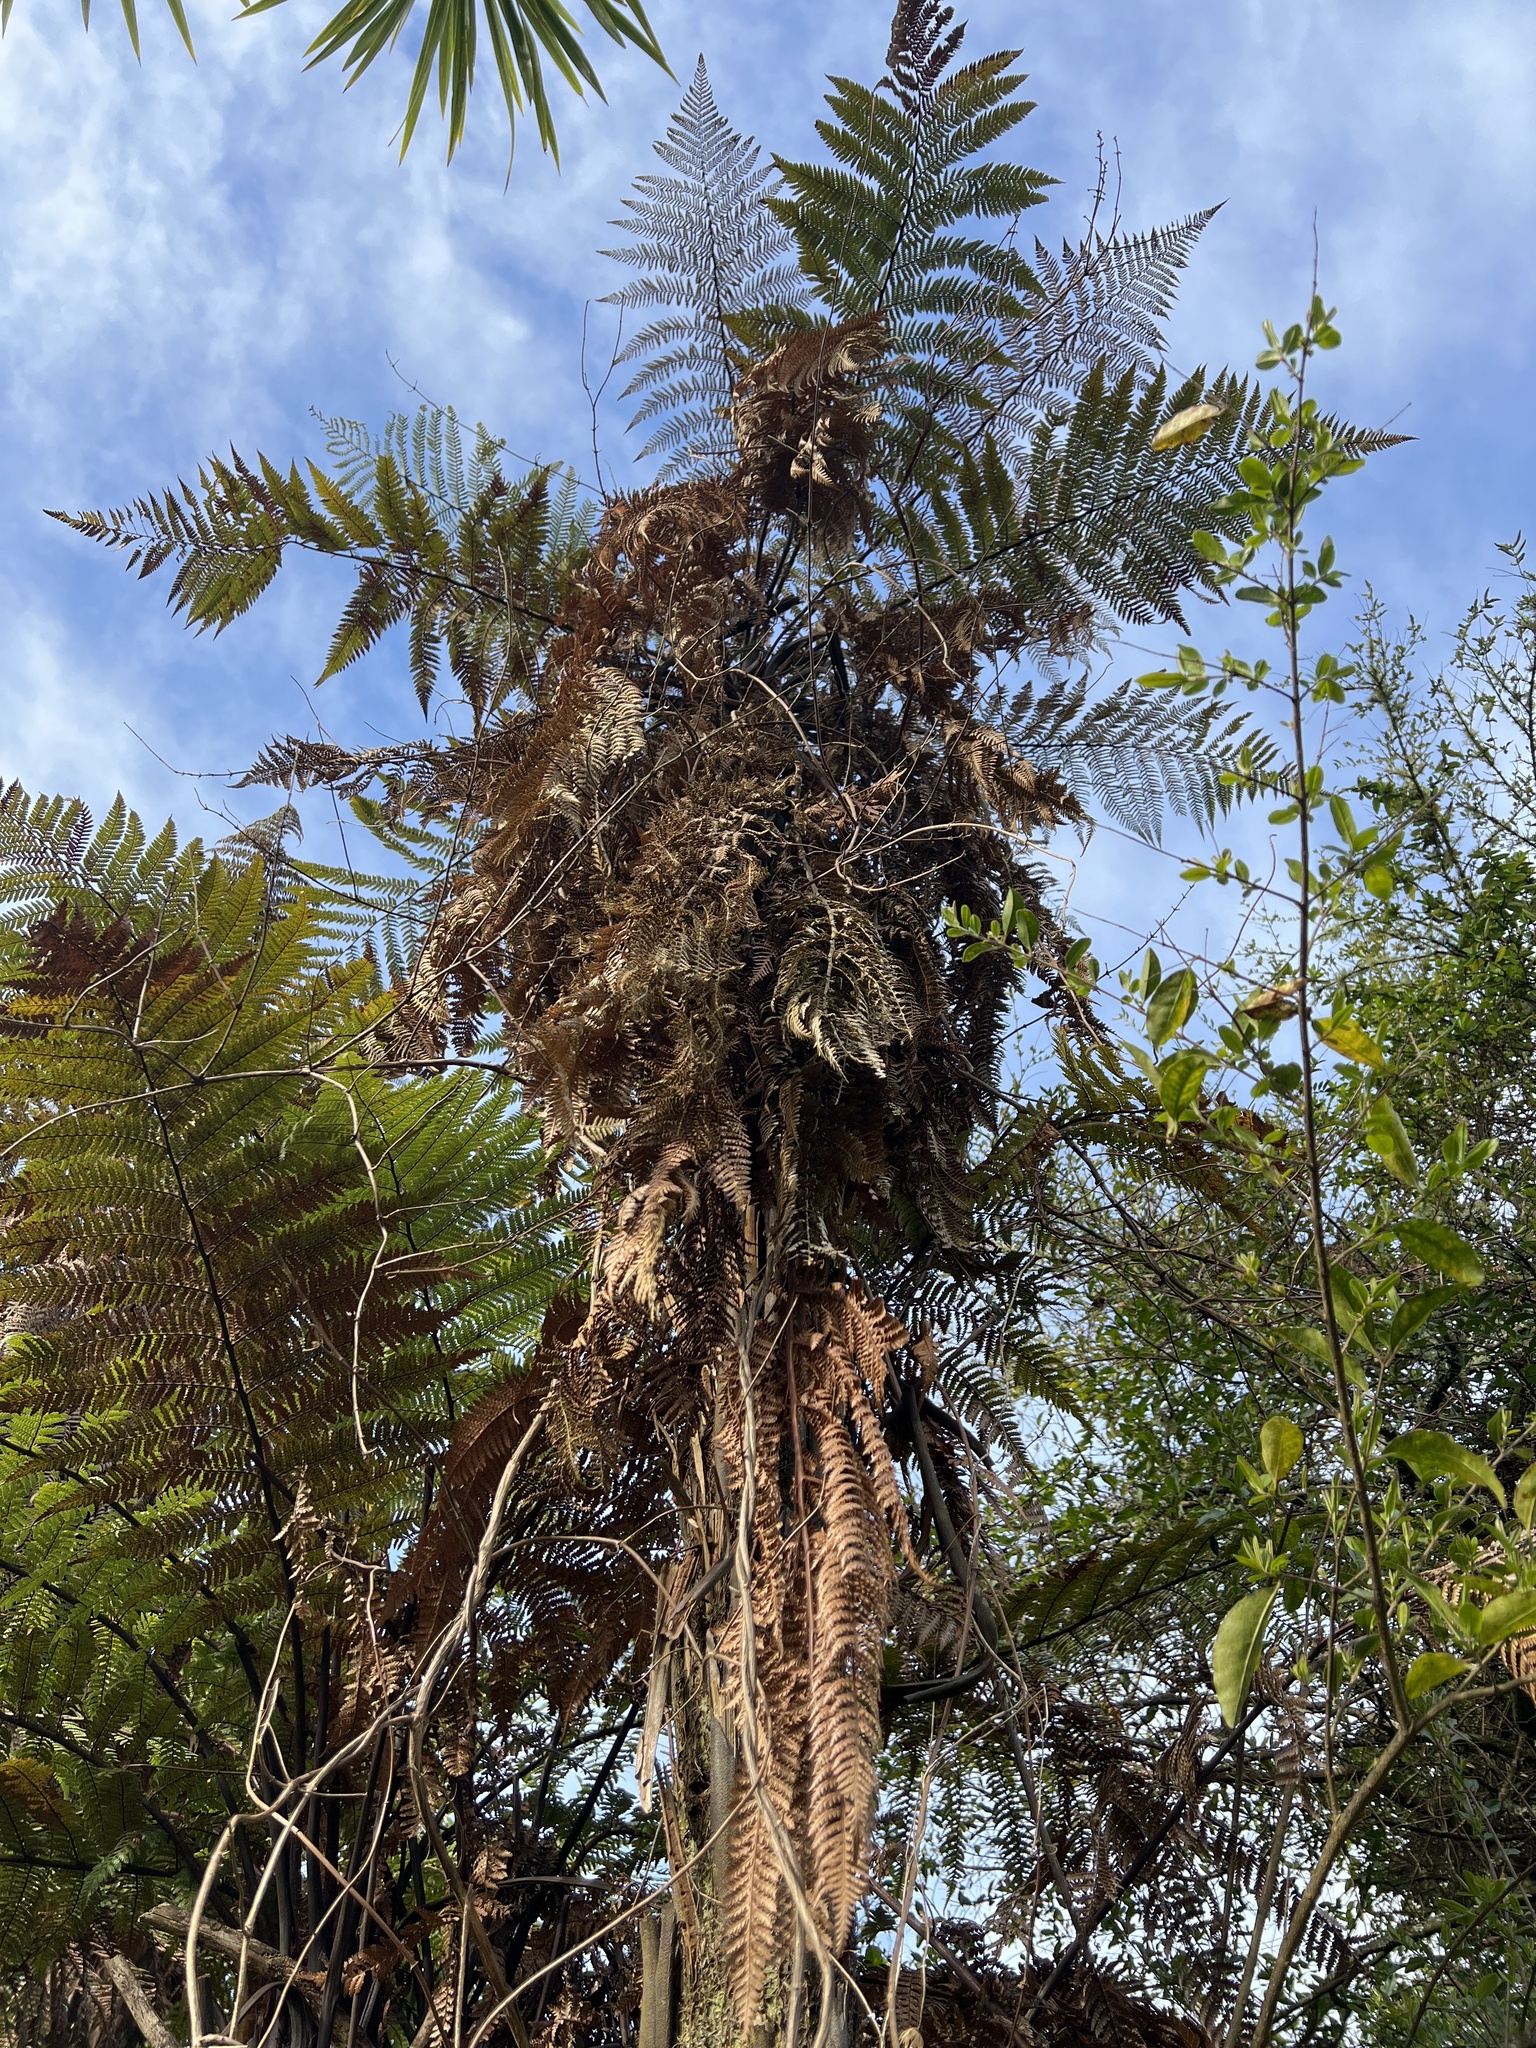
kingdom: Plantae
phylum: Tracheophyta
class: Polypodiopsida
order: Cyatheales
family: Dicksoniaceae
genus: Dicksonia
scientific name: Dicksonia squarrosa
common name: Hard treefern
